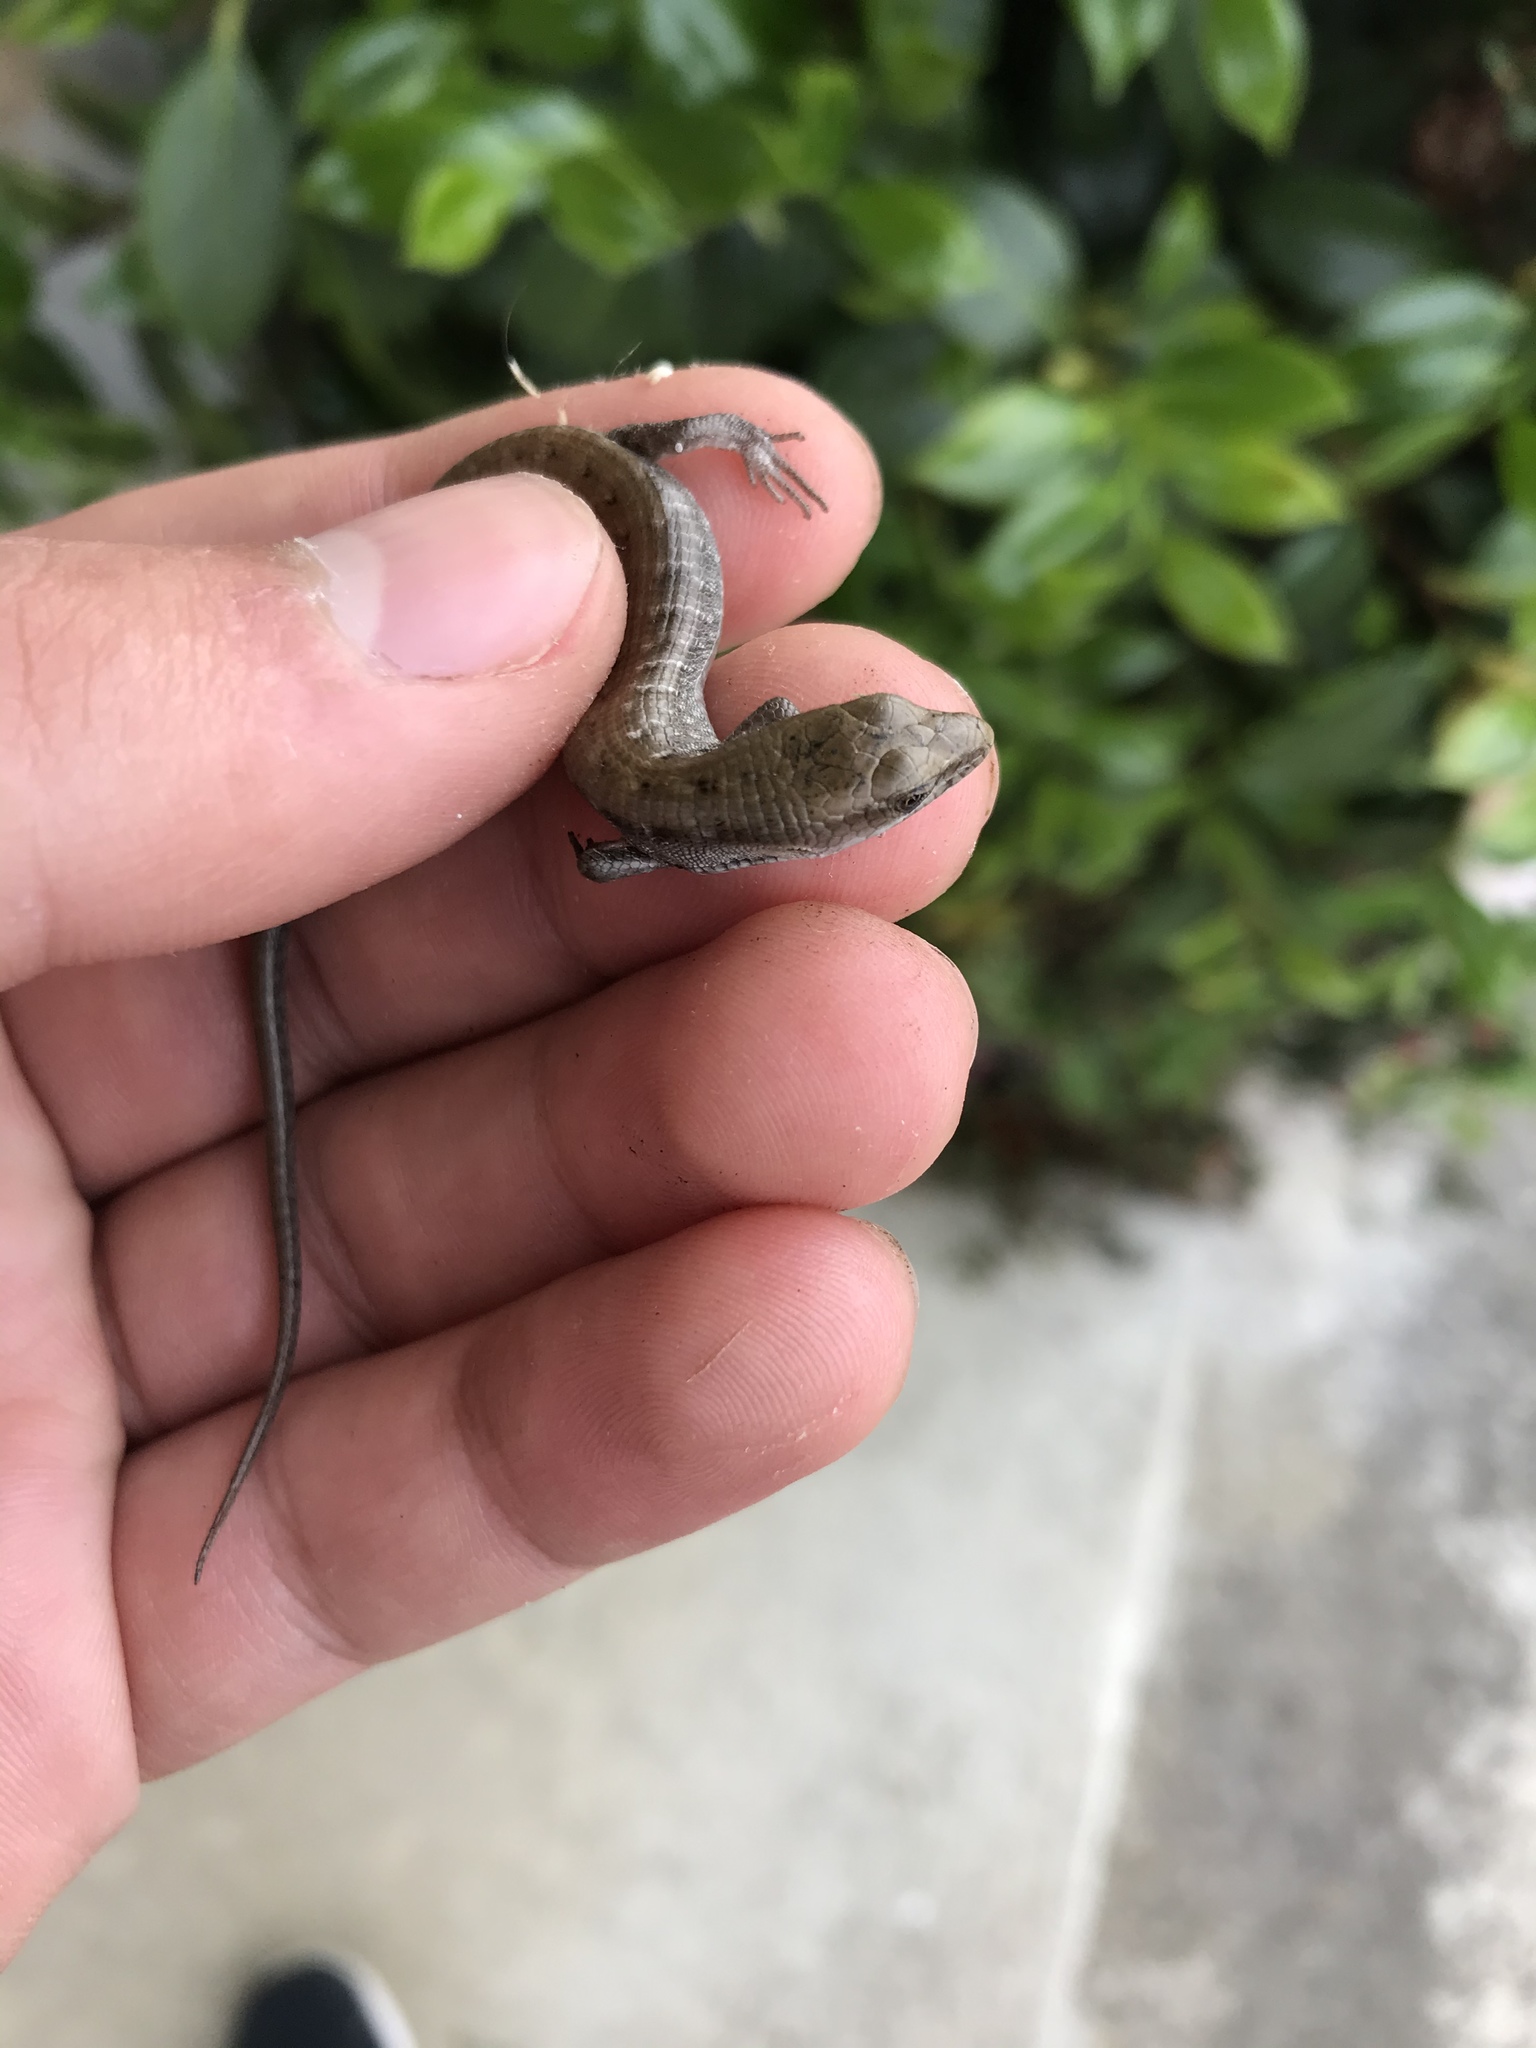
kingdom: Animalia
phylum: Chordata
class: Squamata
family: Anguidae
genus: Elgaria
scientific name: Elgaria multicarinata
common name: Southern alligator lizard
